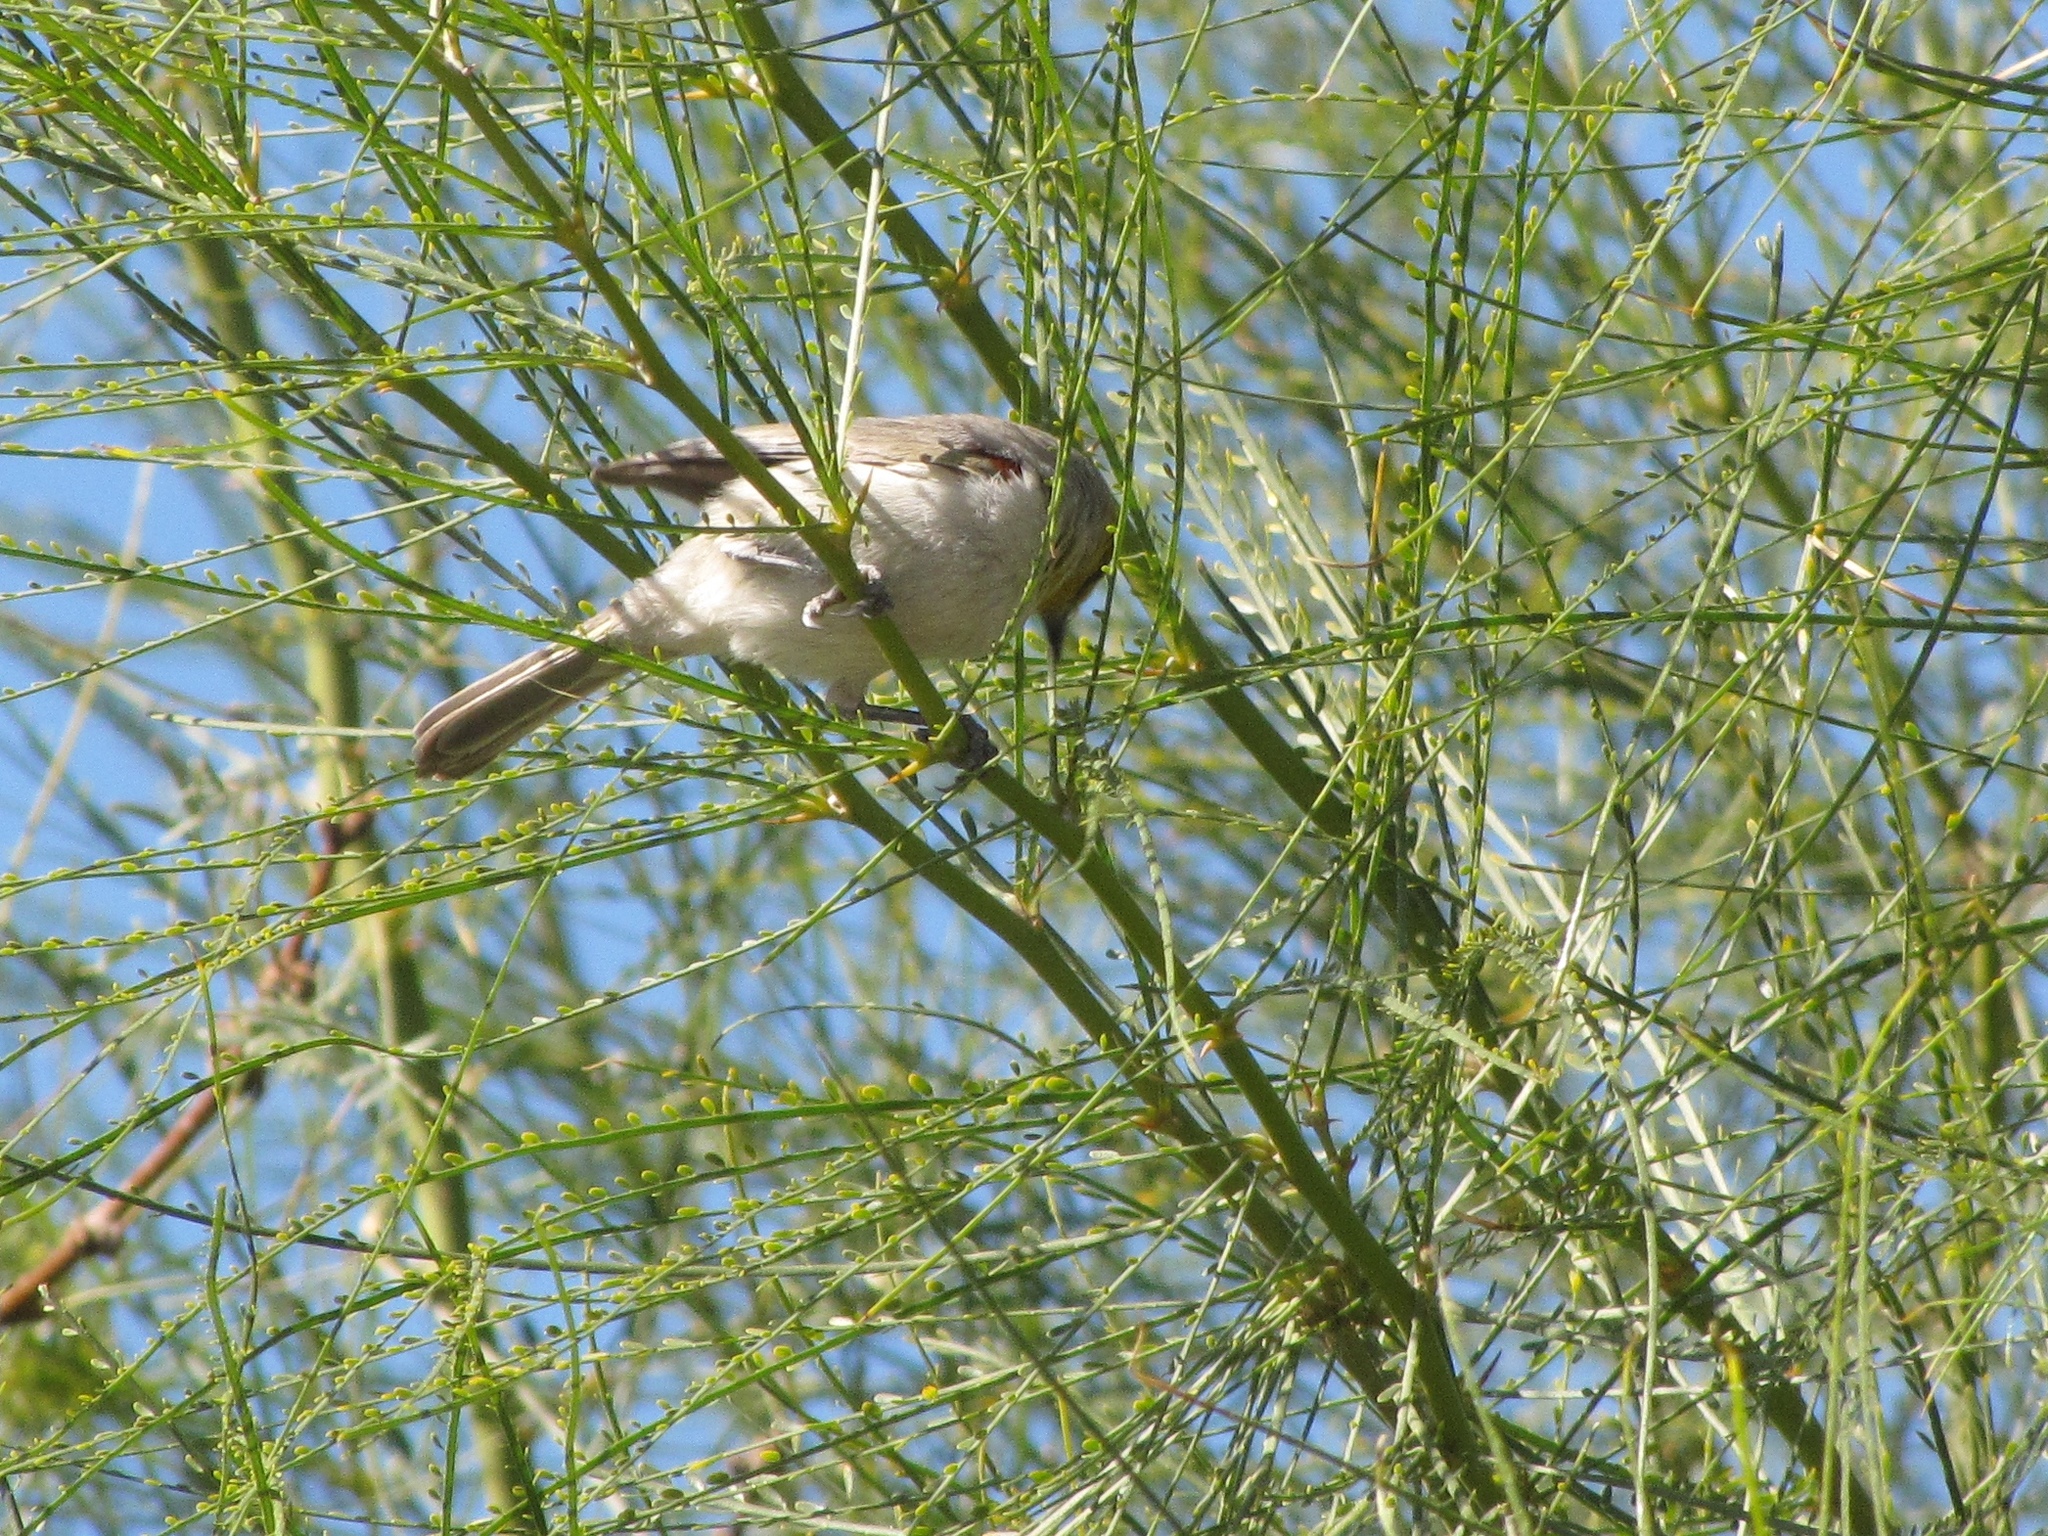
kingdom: Animalia
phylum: Chordata
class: Aves
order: Passeriformes
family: Remizidae
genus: Auriparus
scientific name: Auriparus flaviceps
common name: Verdin
